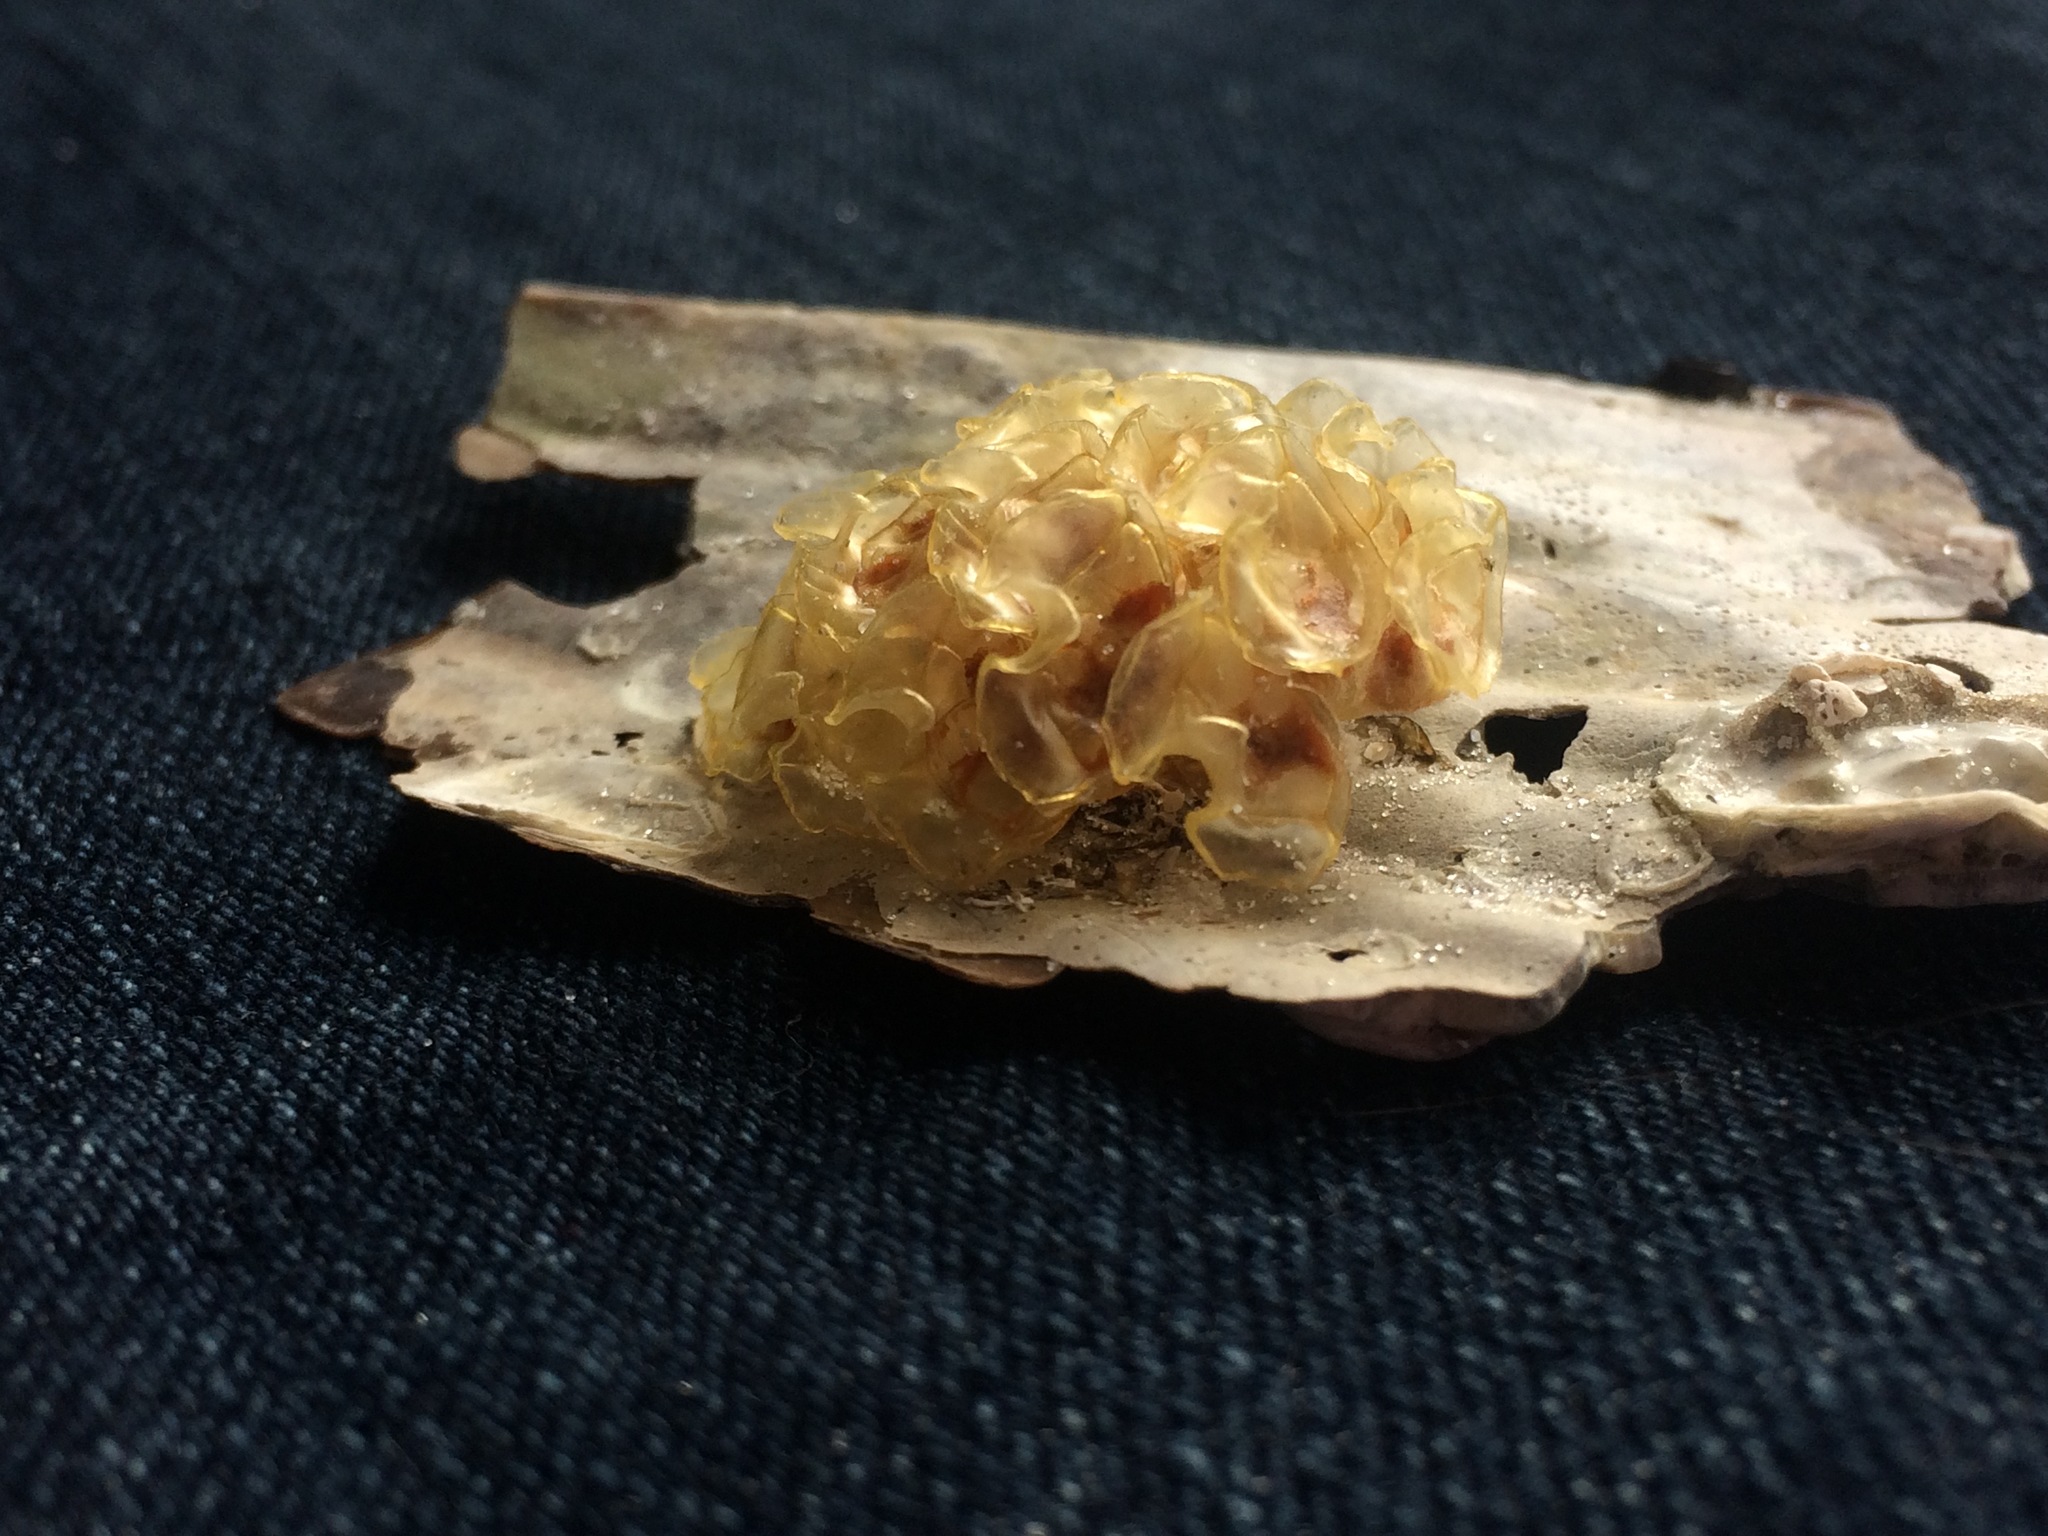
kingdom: Animalia
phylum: Mollusca
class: Gastropoda
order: Neogastropoda
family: Fasciolariidae
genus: Cinctura
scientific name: Cinctura hunteria
